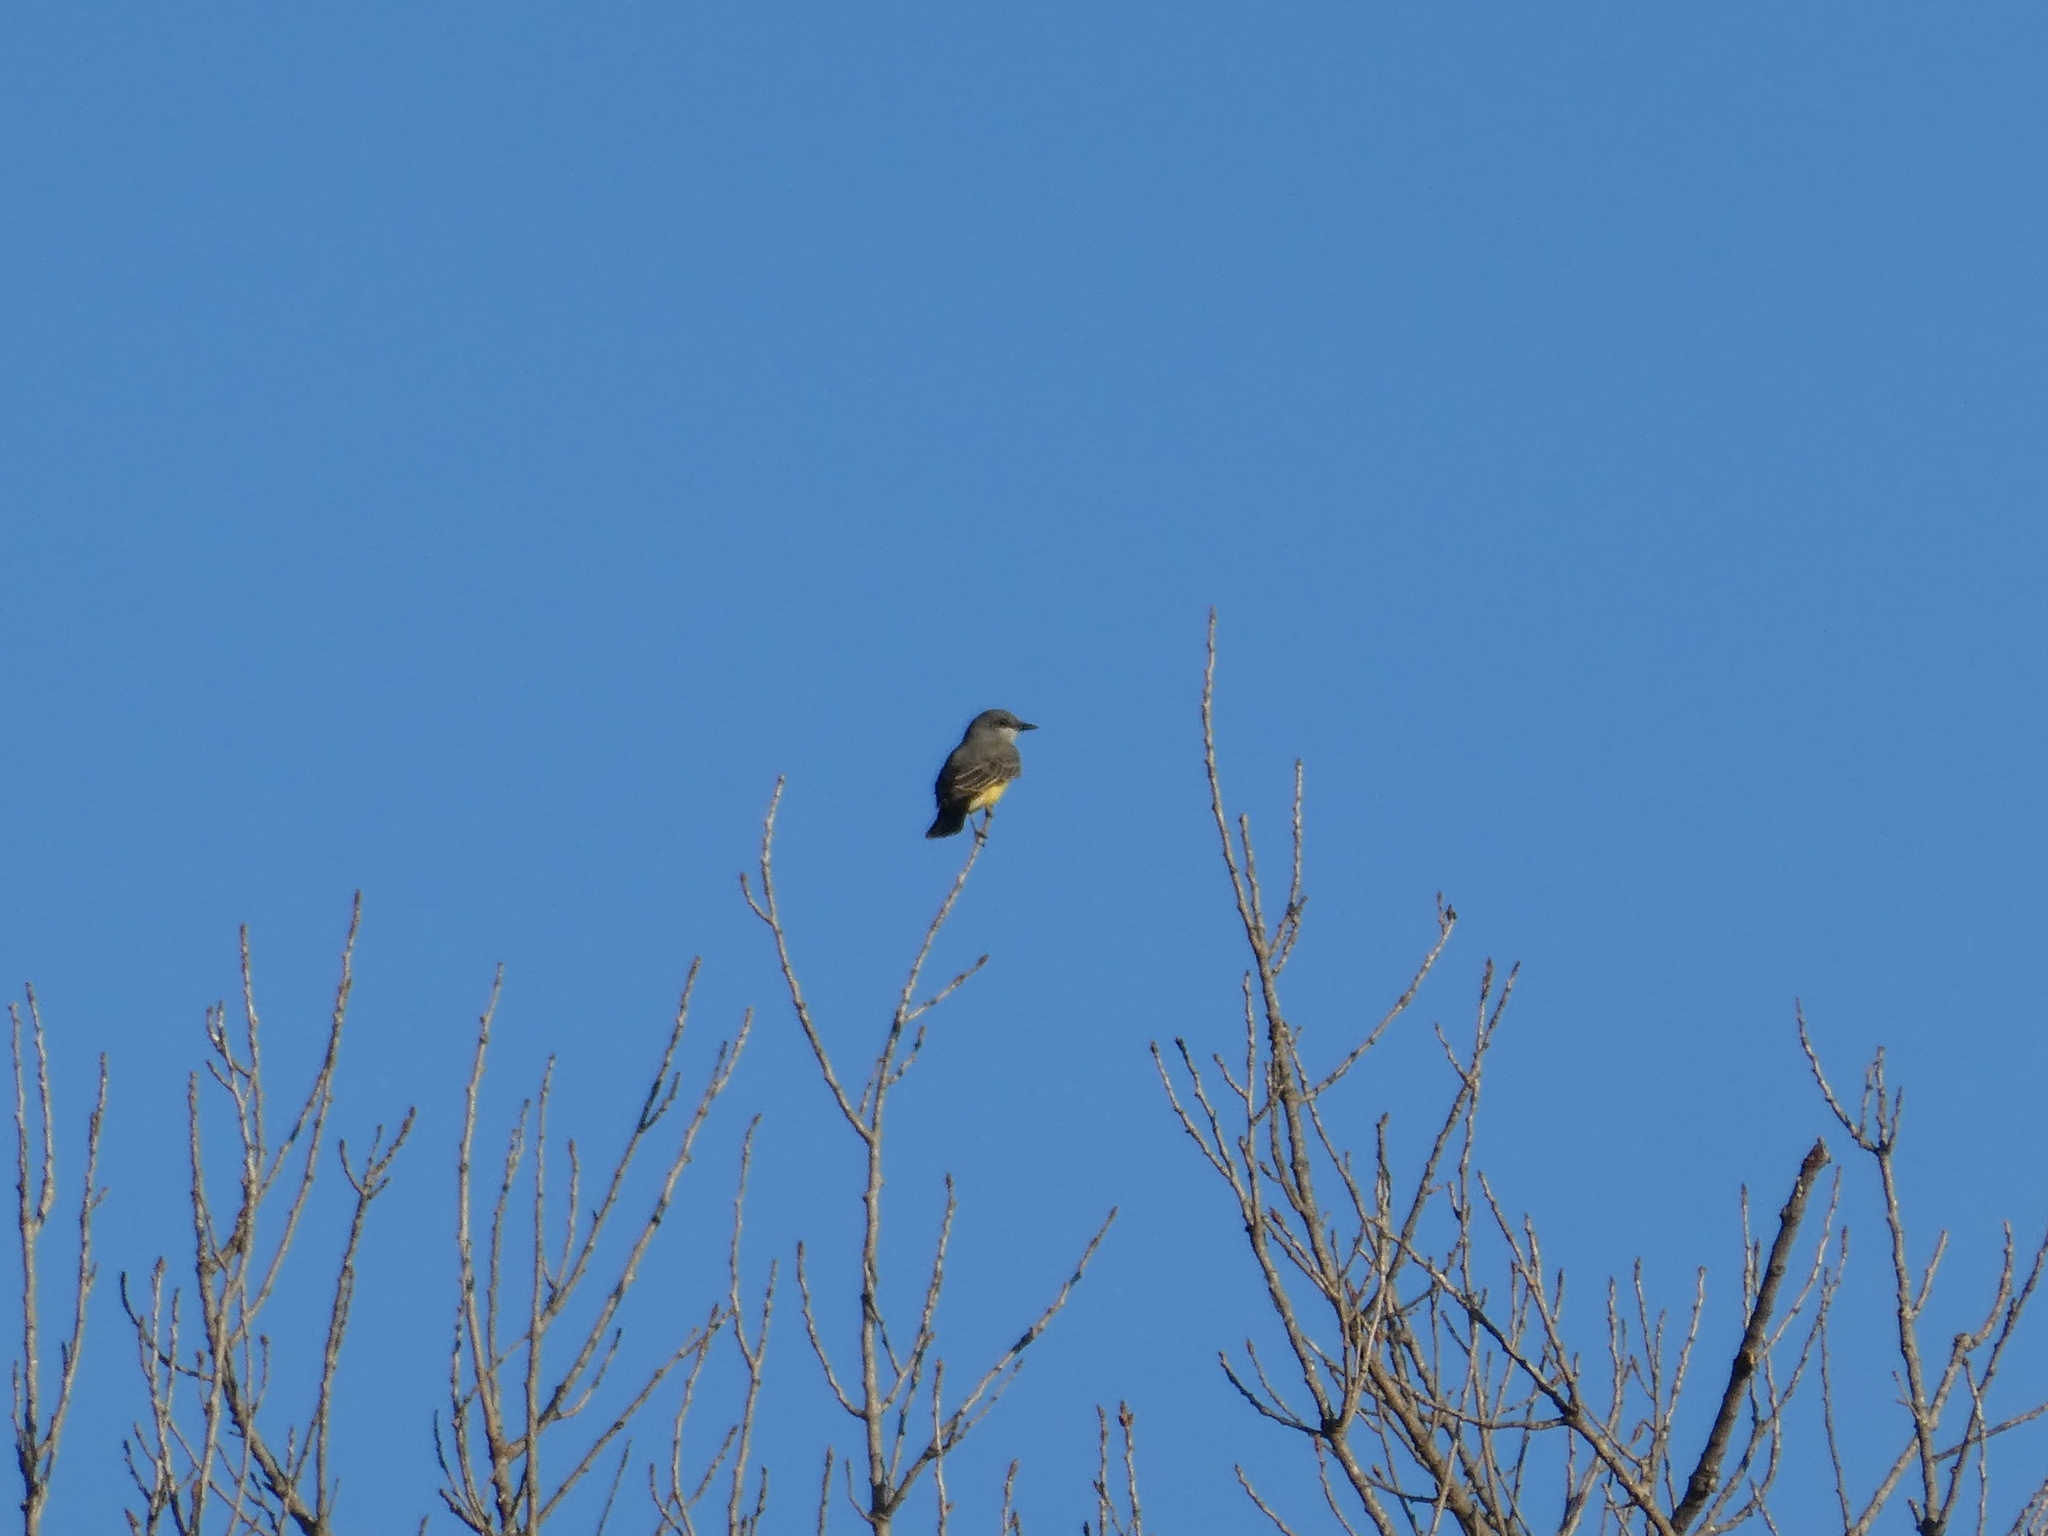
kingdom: Animalia
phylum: Chordata
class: Aves
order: Passeriformes
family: Tyrannidae
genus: Tyrannus
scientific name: Tyrannus vociferans
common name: Cassin's kingbird
